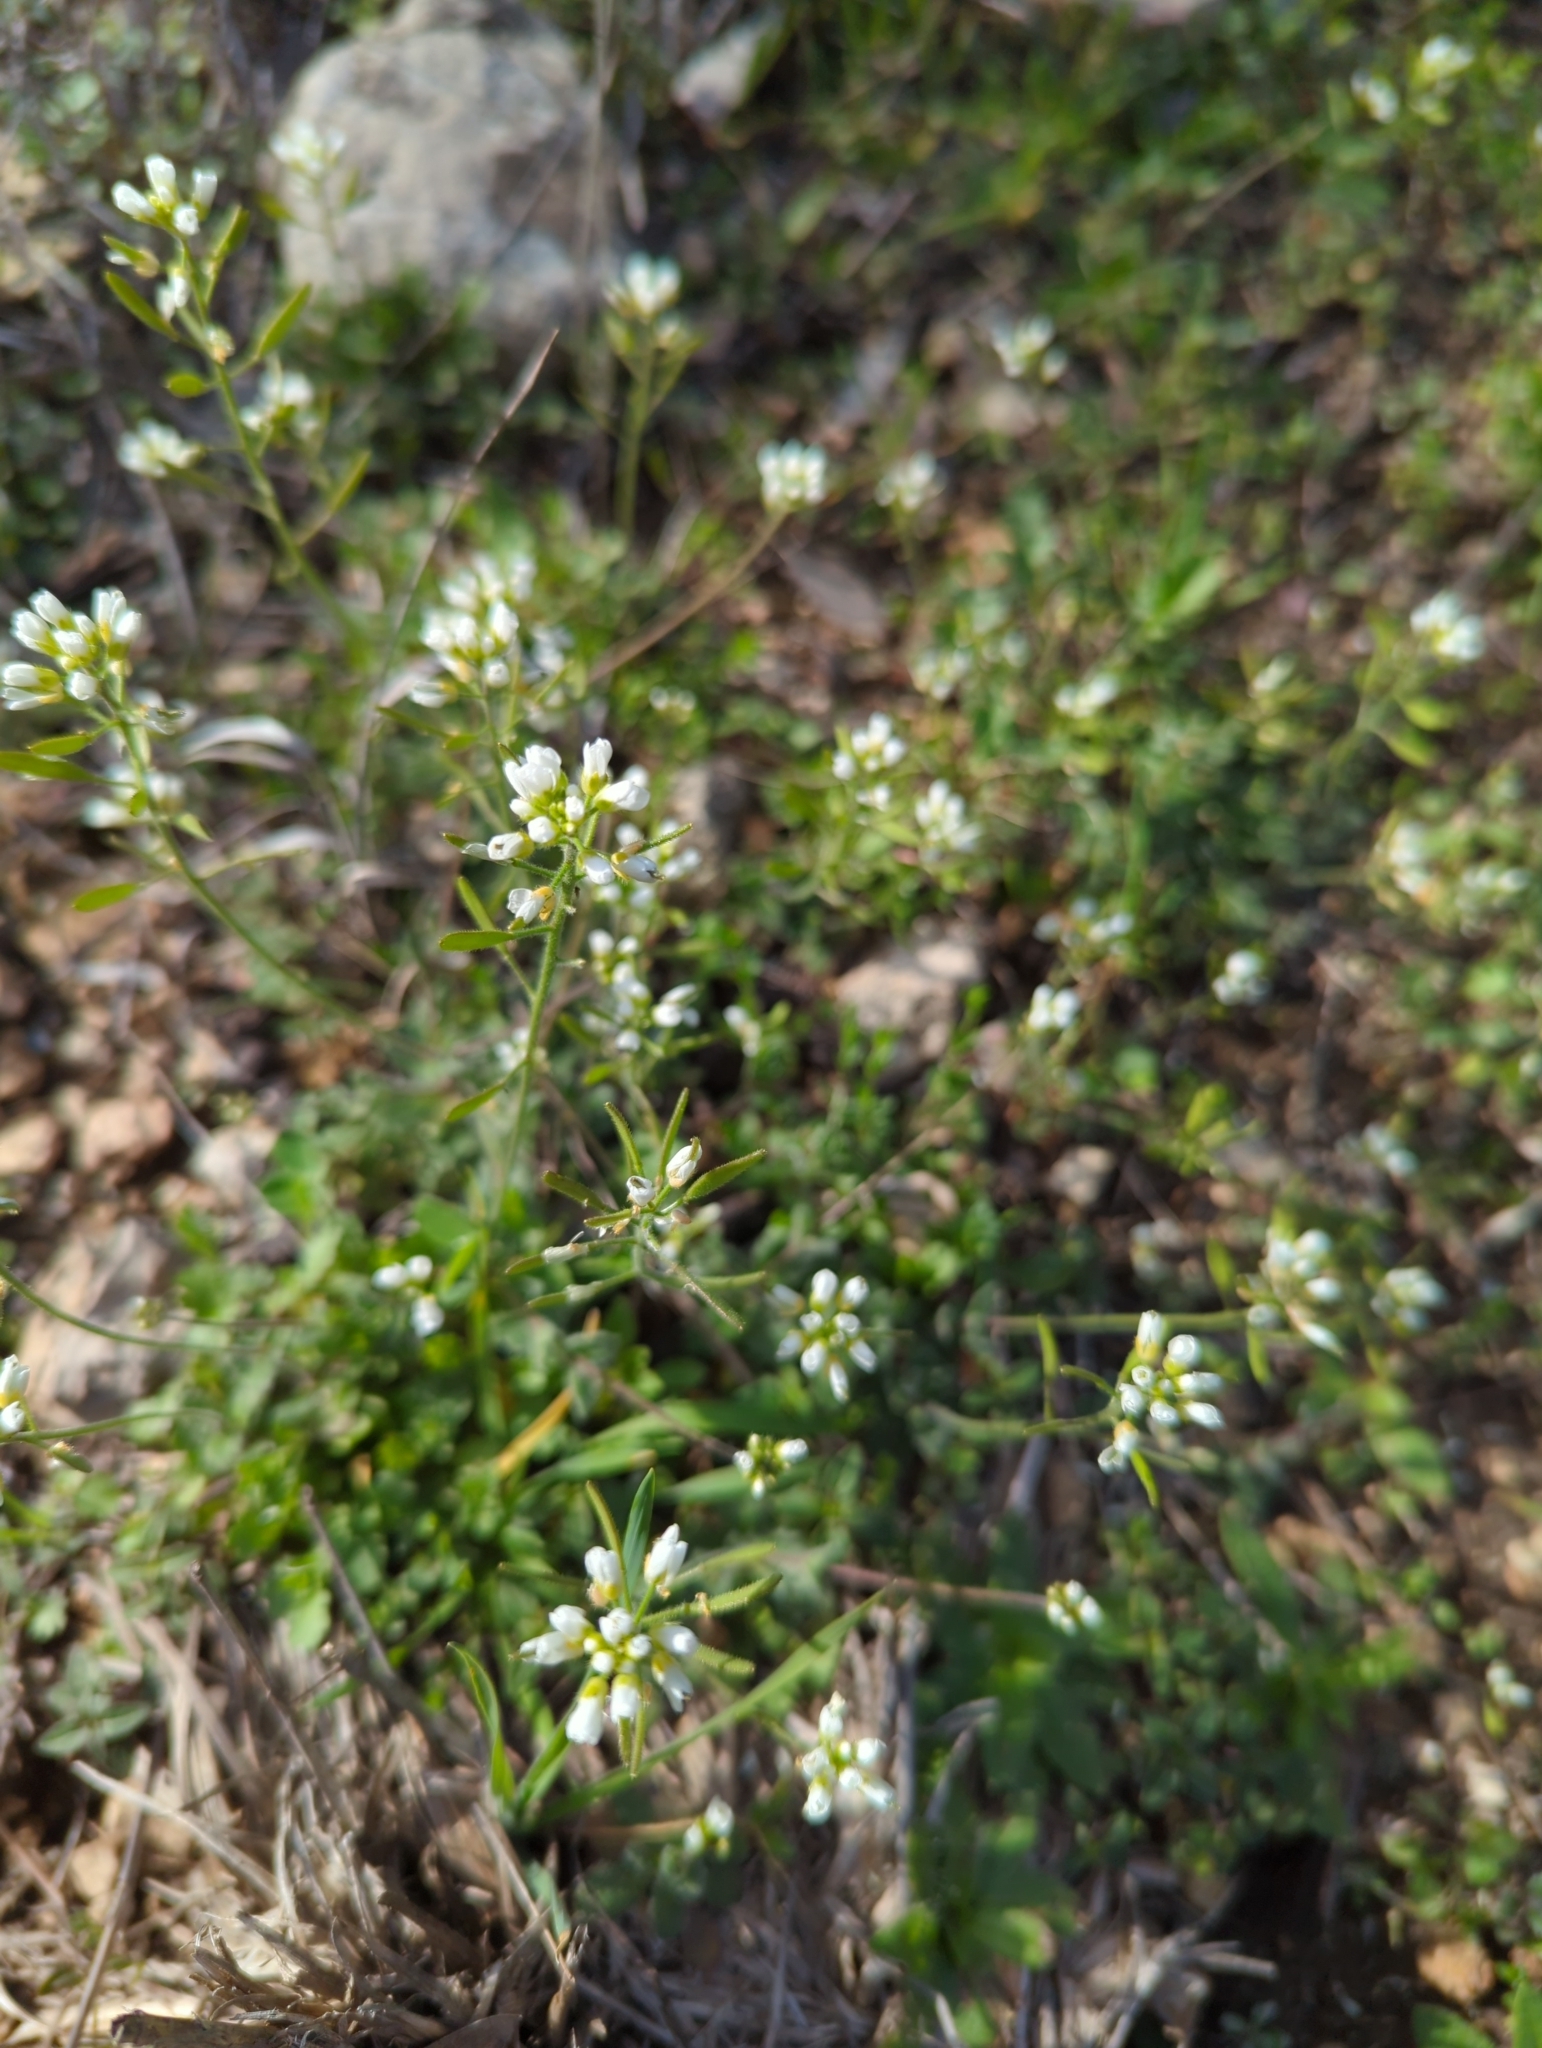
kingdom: Plantae
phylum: Tracheophyta
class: Magnoliopsida
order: Brassicales
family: Brassicaceae
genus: Tomostima
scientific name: Tomostima cuneifolia
